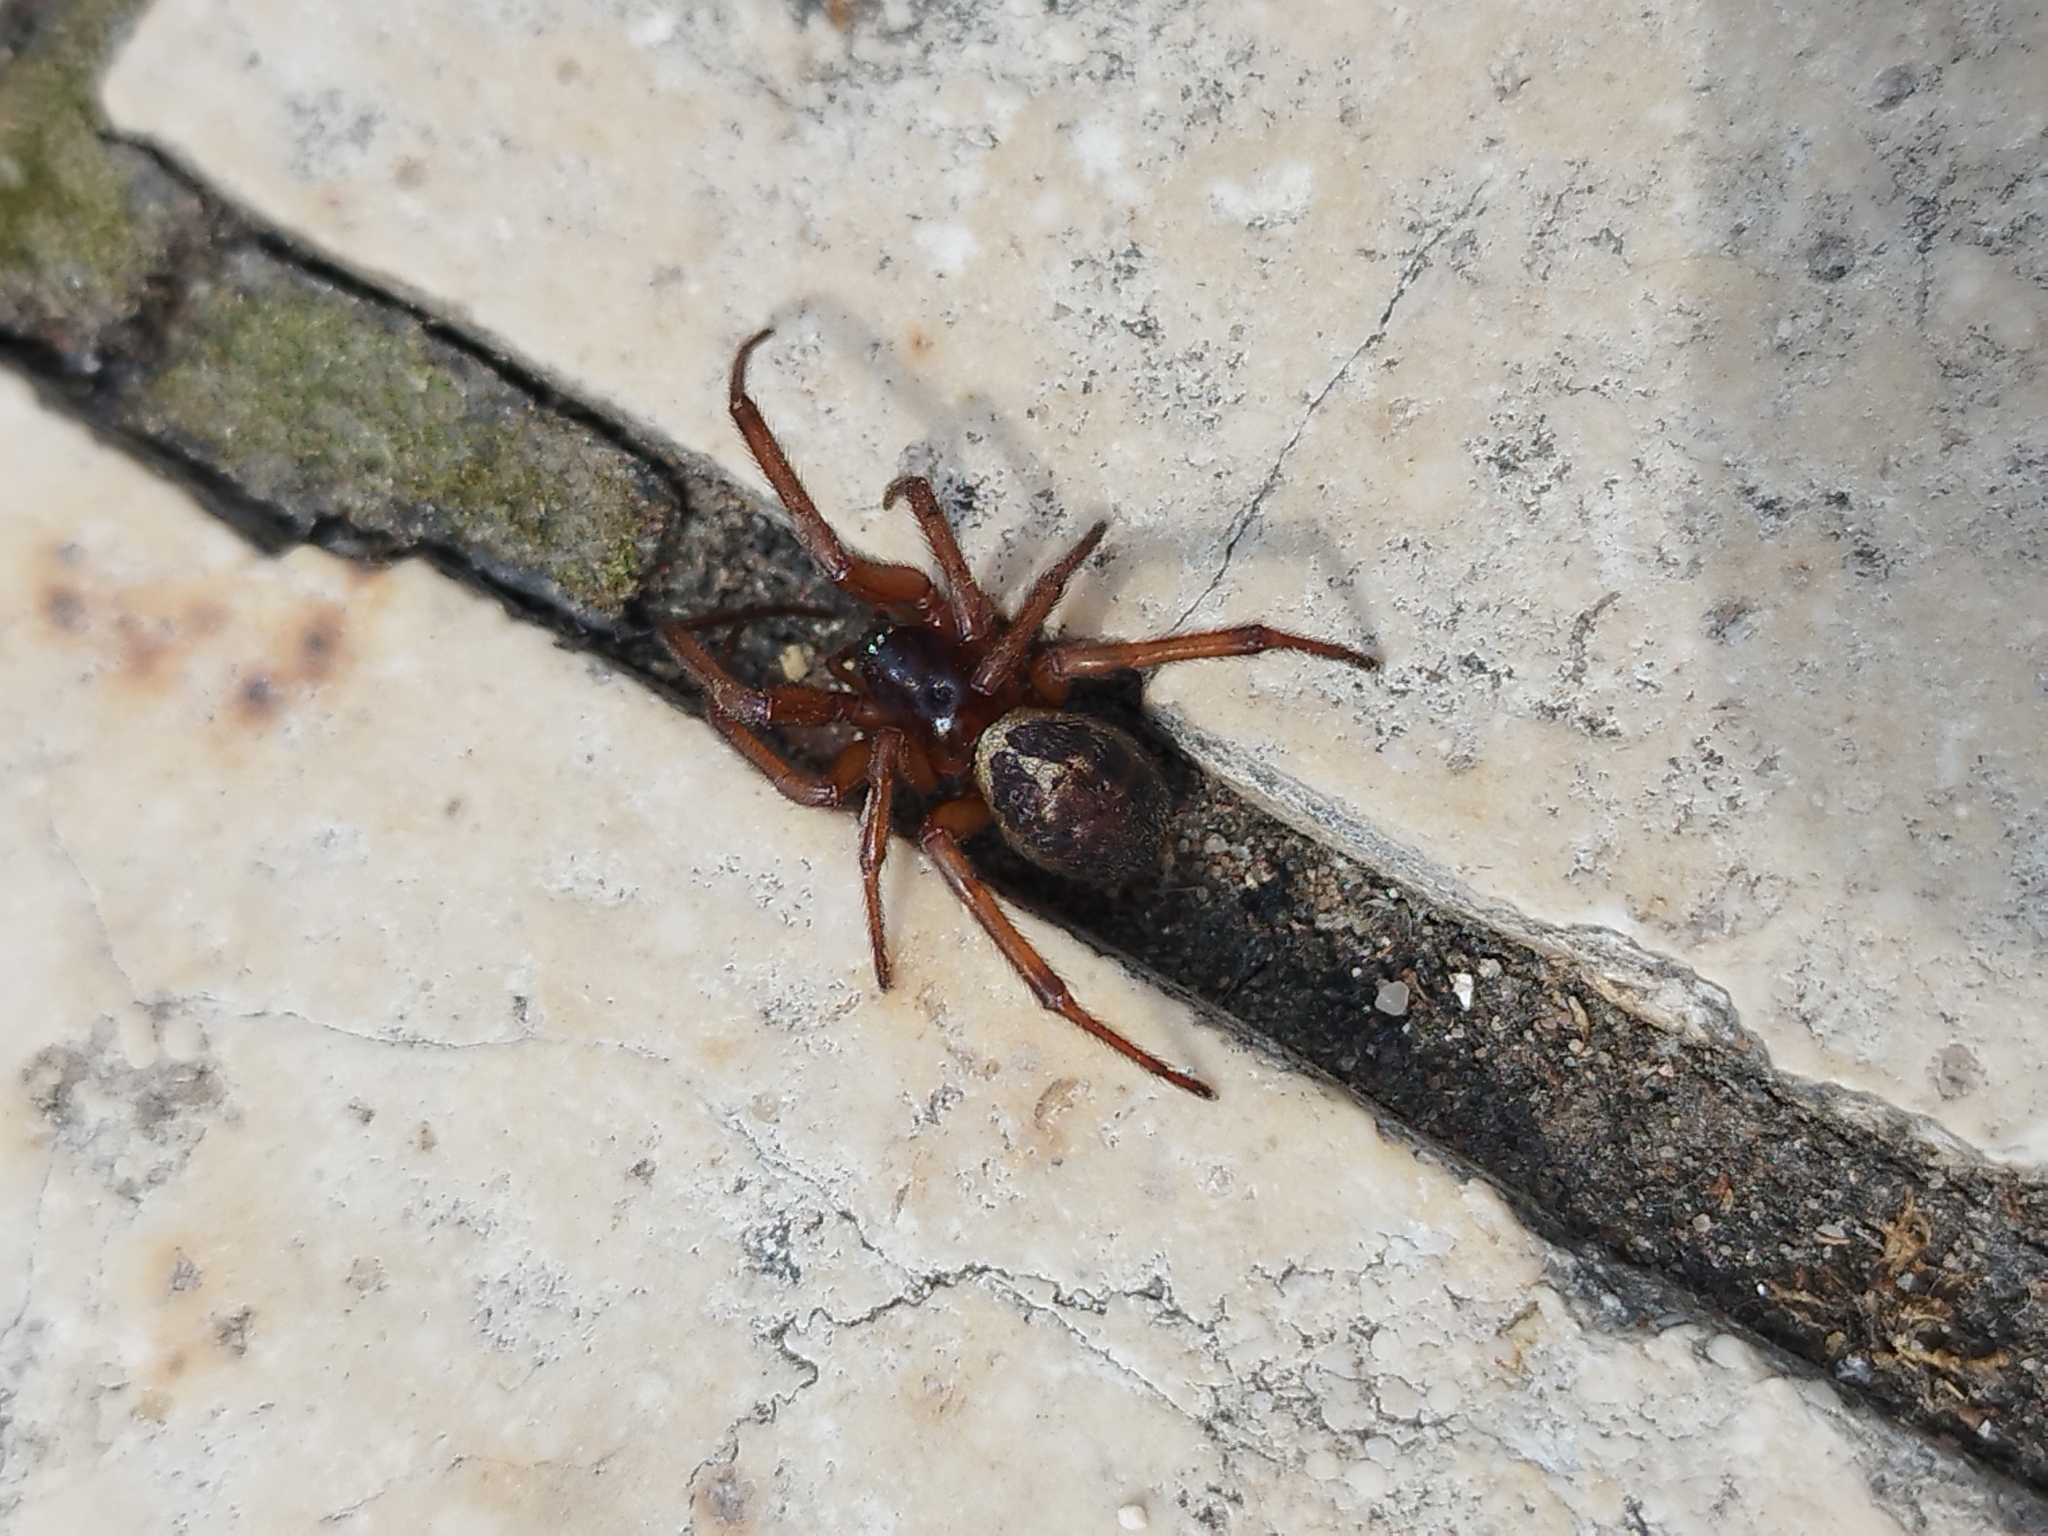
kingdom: Animalia
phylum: Arthropoda
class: Arachnida
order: Araneae
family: Theridiidae
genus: Steatoda
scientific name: Steatoda nobilis
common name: Cobweb weaver
